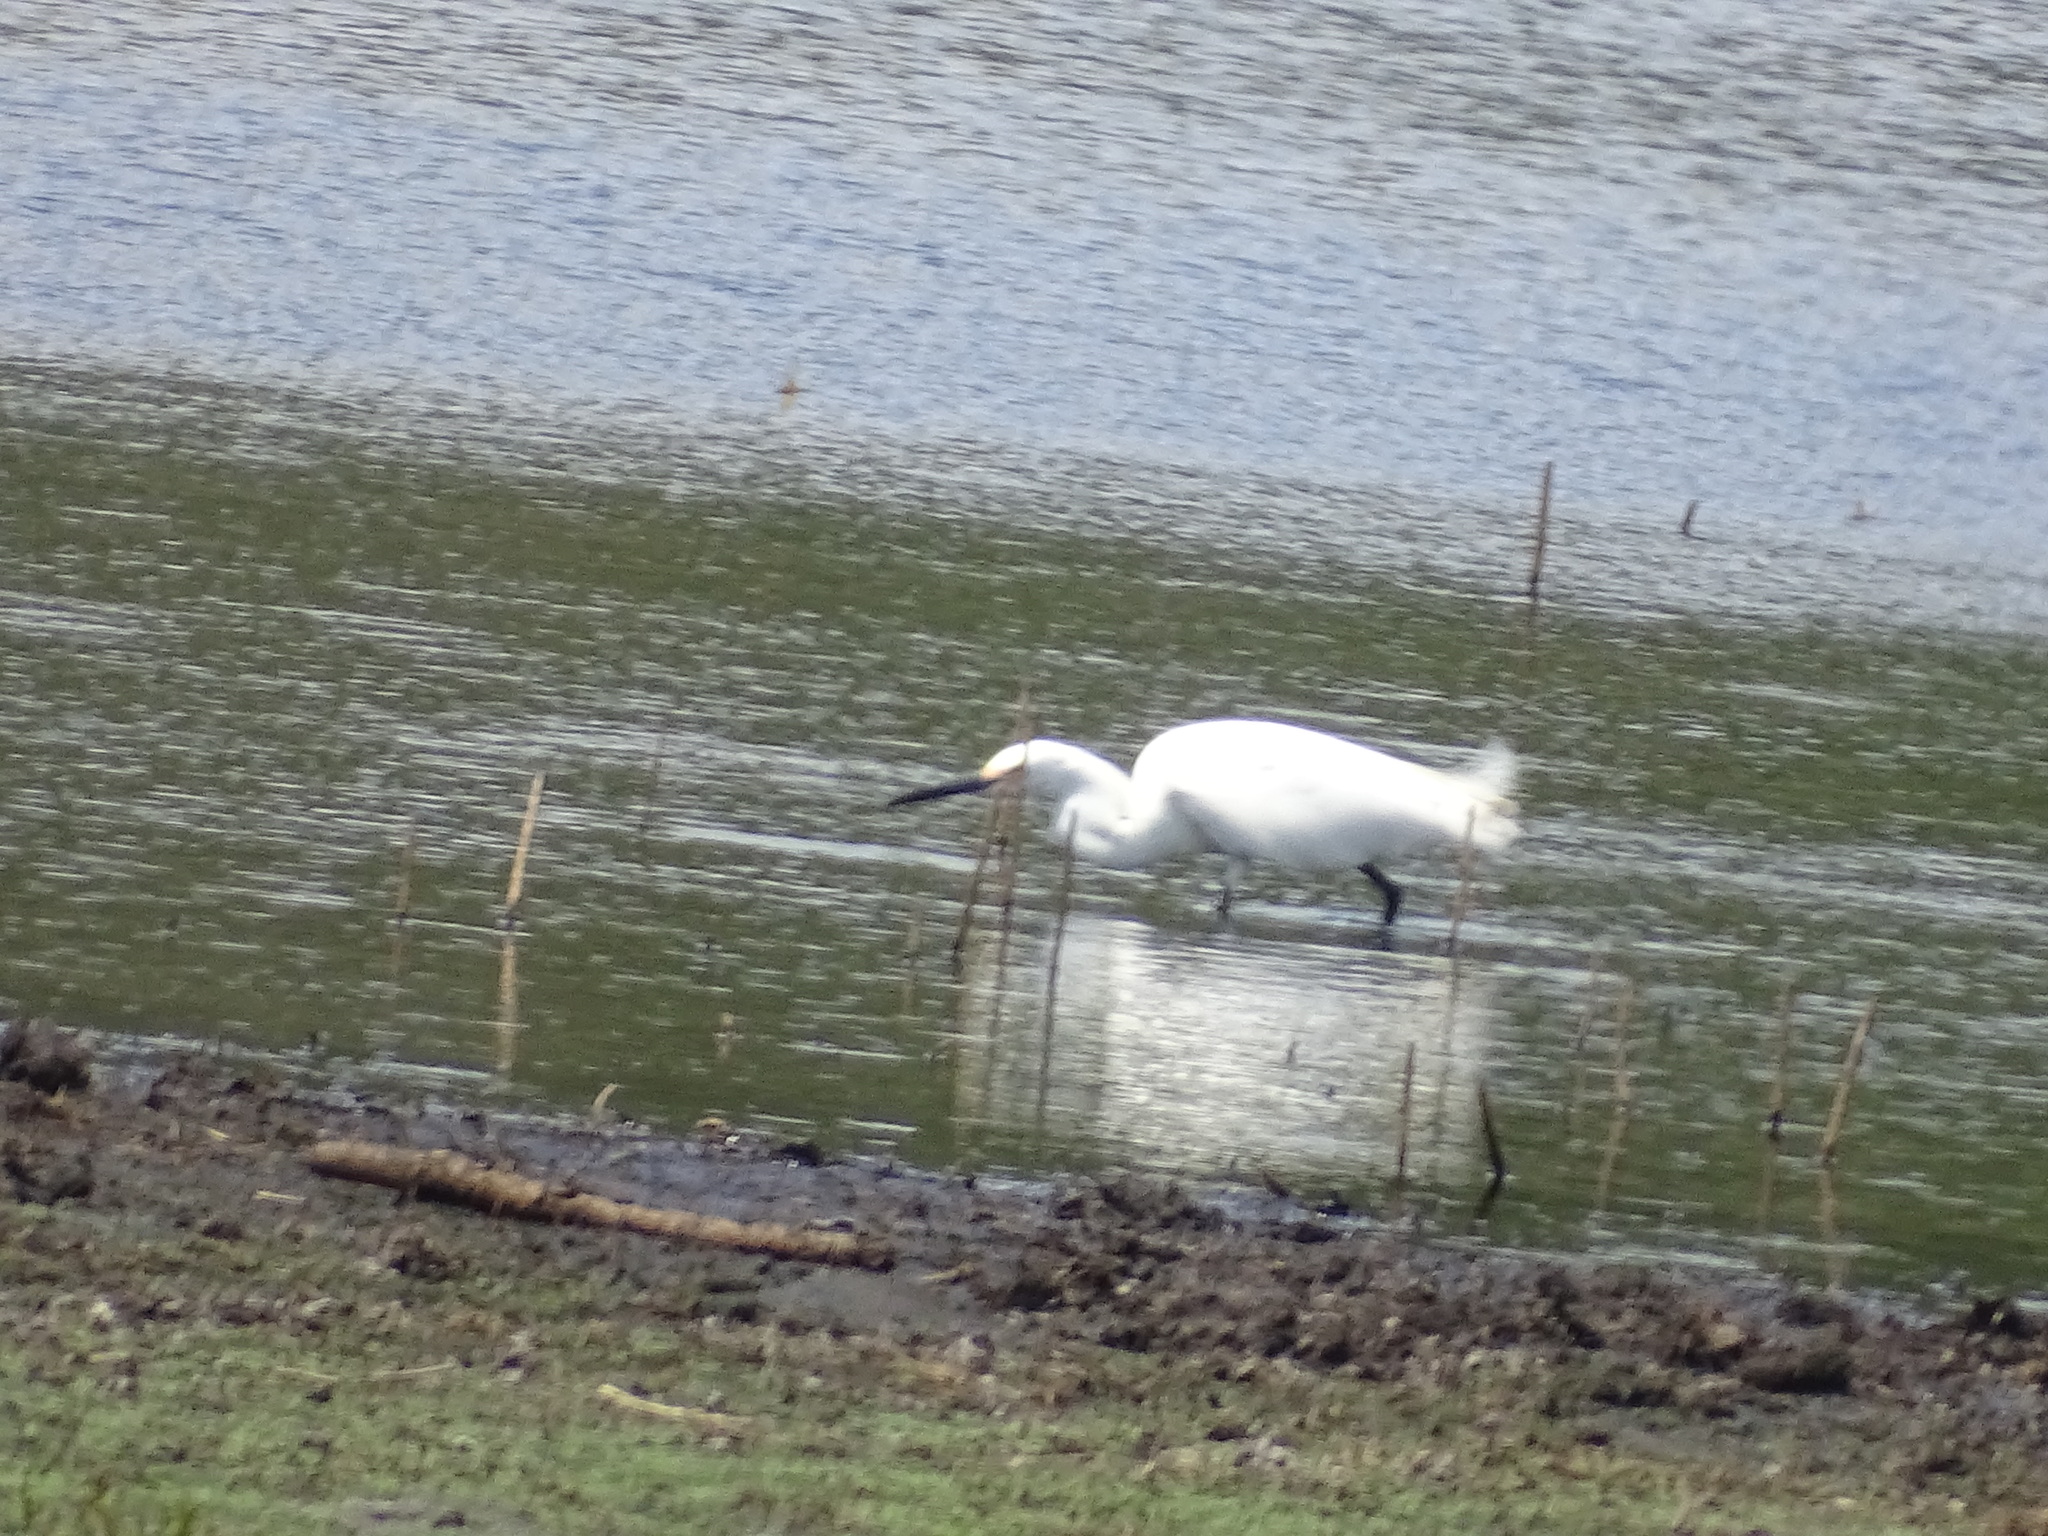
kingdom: Animalia
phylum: Chordata
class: Aves
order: Pelecaniformes
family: Ardeidae
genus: Egretta
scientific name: Egretta thula
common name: Snowy egret
